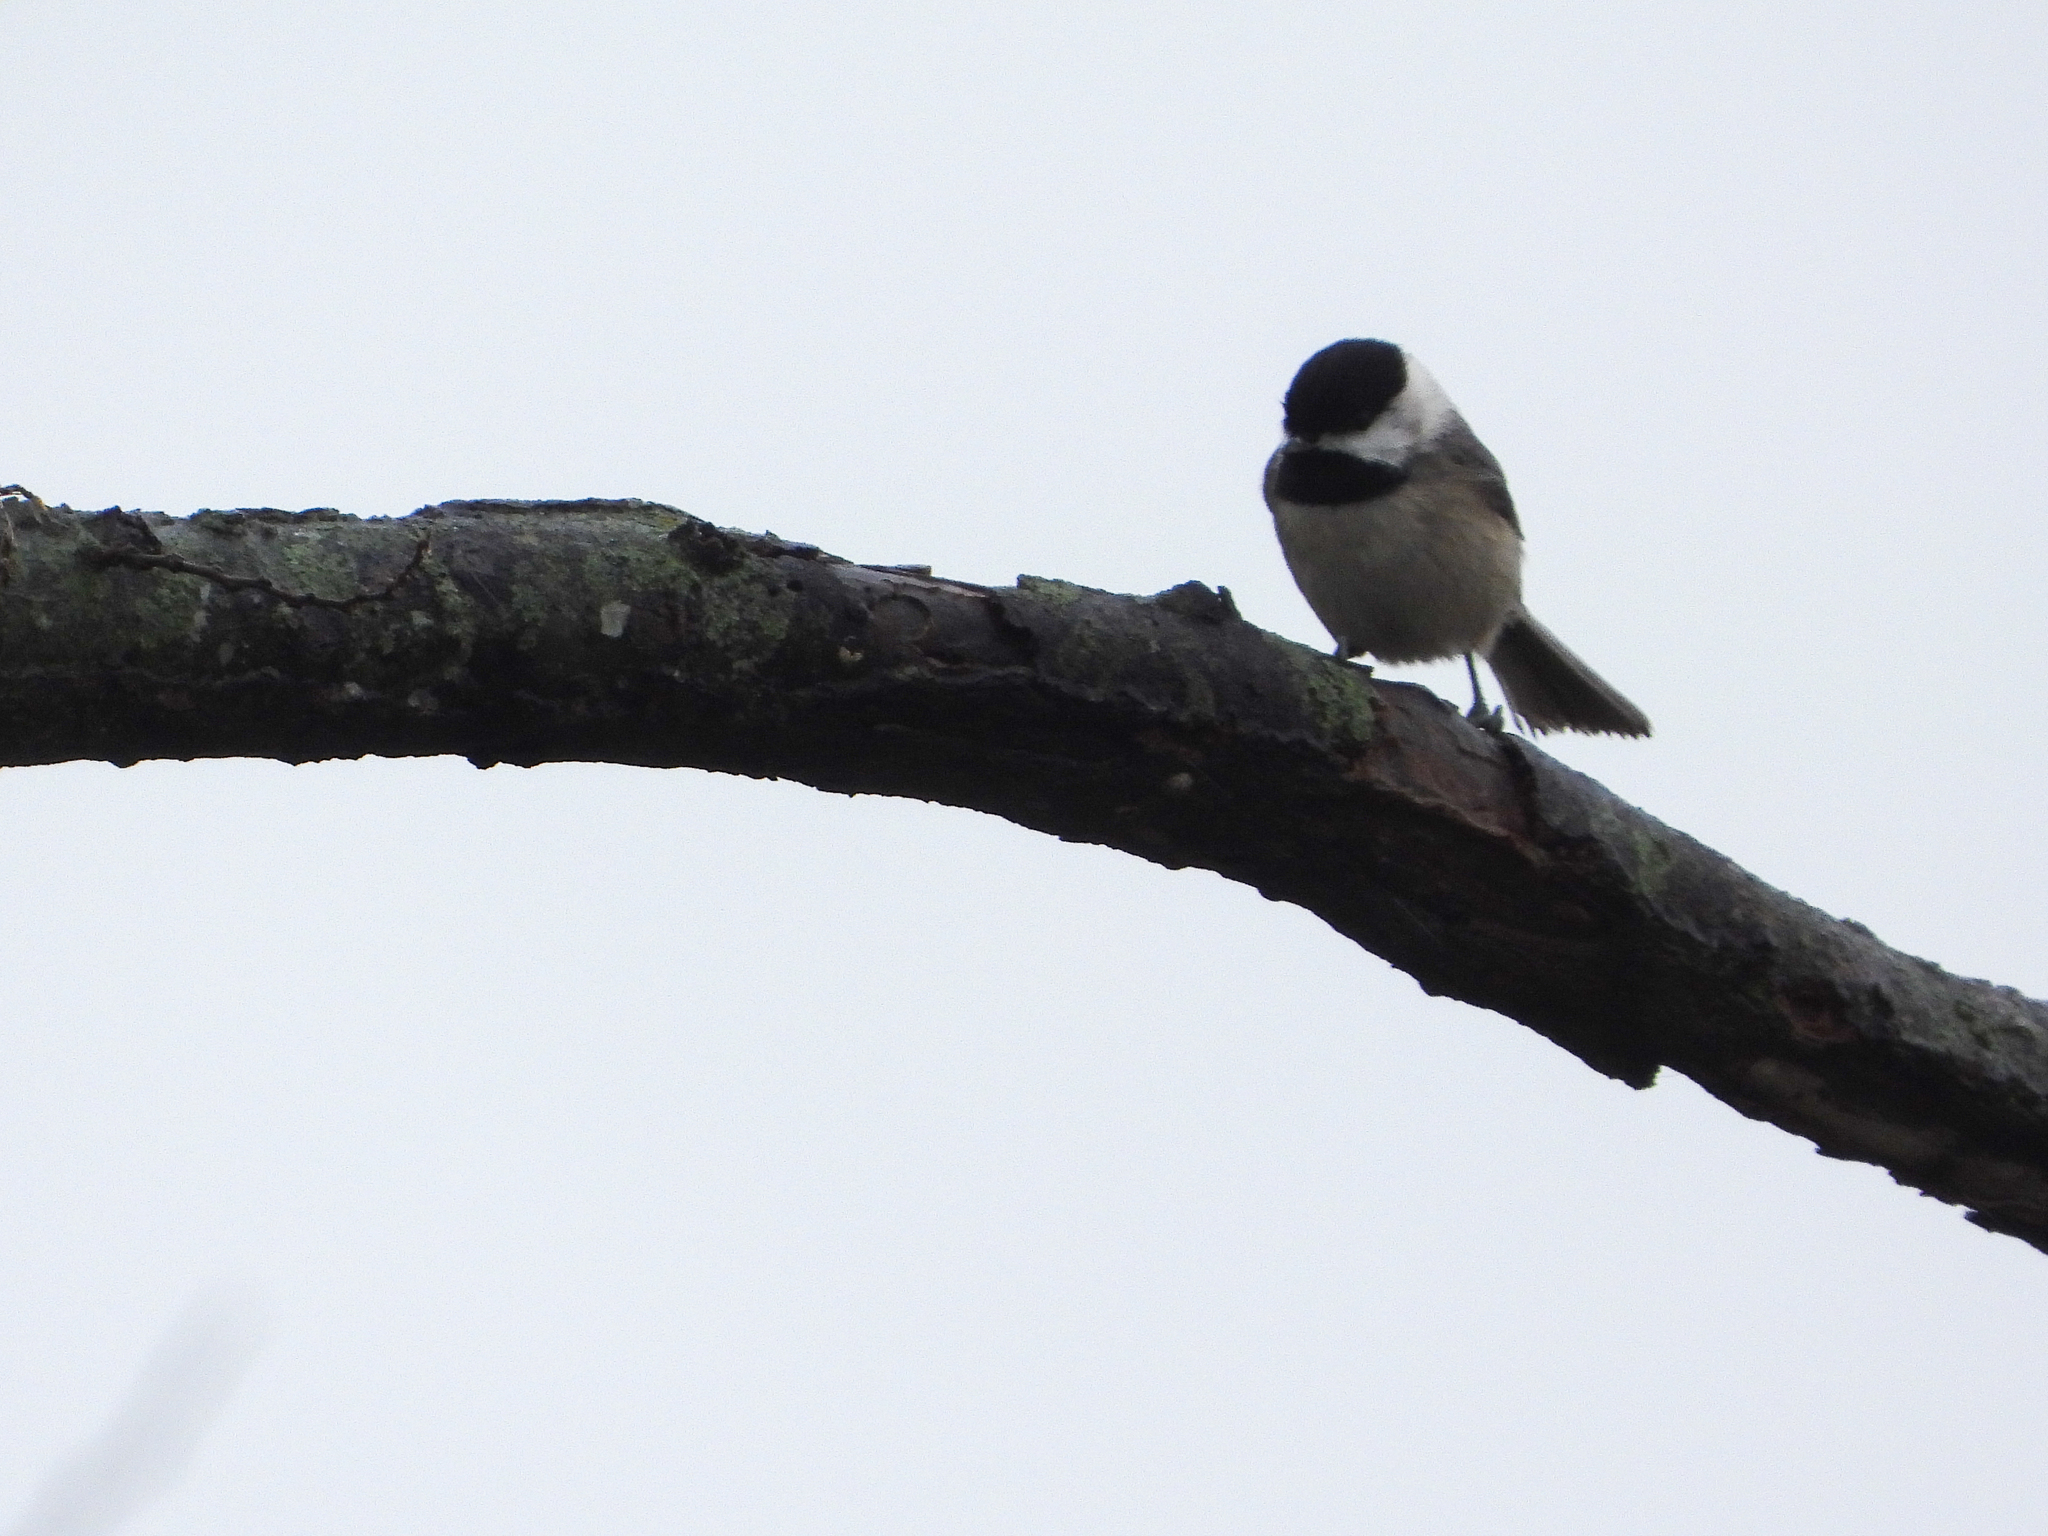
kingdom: Animalia
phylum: Chordata
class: Aves
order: Passeriformes
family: Paridae
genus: Poecile
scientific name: Poecile carolinensis
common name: Carolina chickadee
